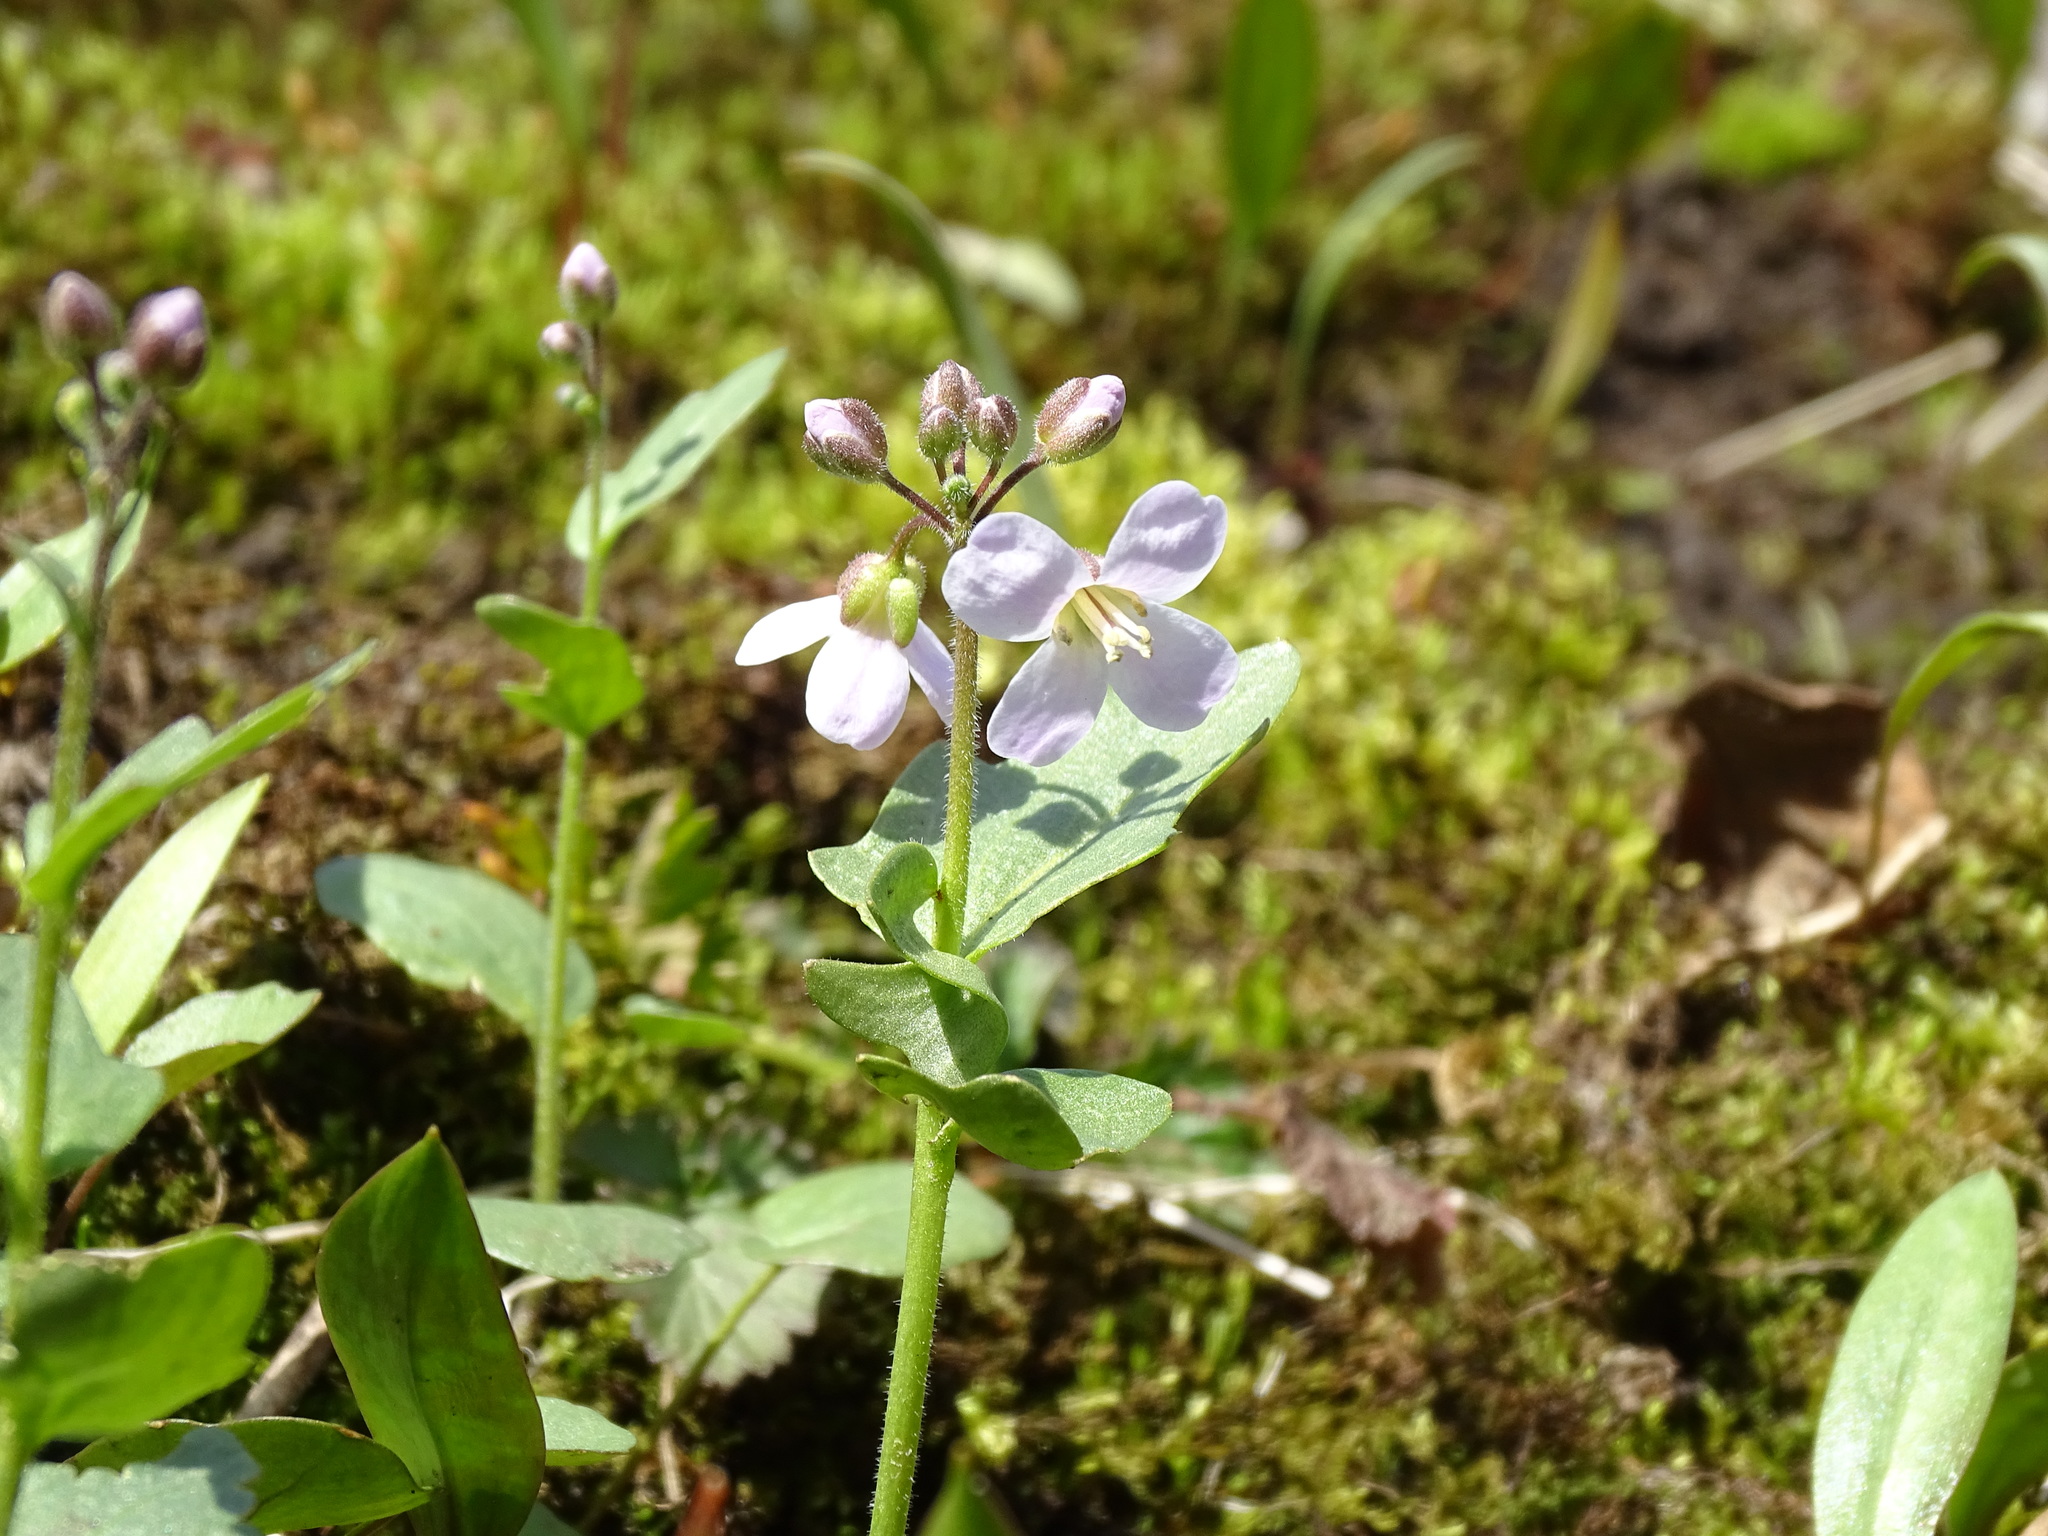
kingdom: Plantae
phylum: Tracheophyta
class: Magnoliopsida
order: Brassicales
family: Brassicaceae
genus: Cardamine
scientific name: Cardamine douglassii
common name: Purple cress
